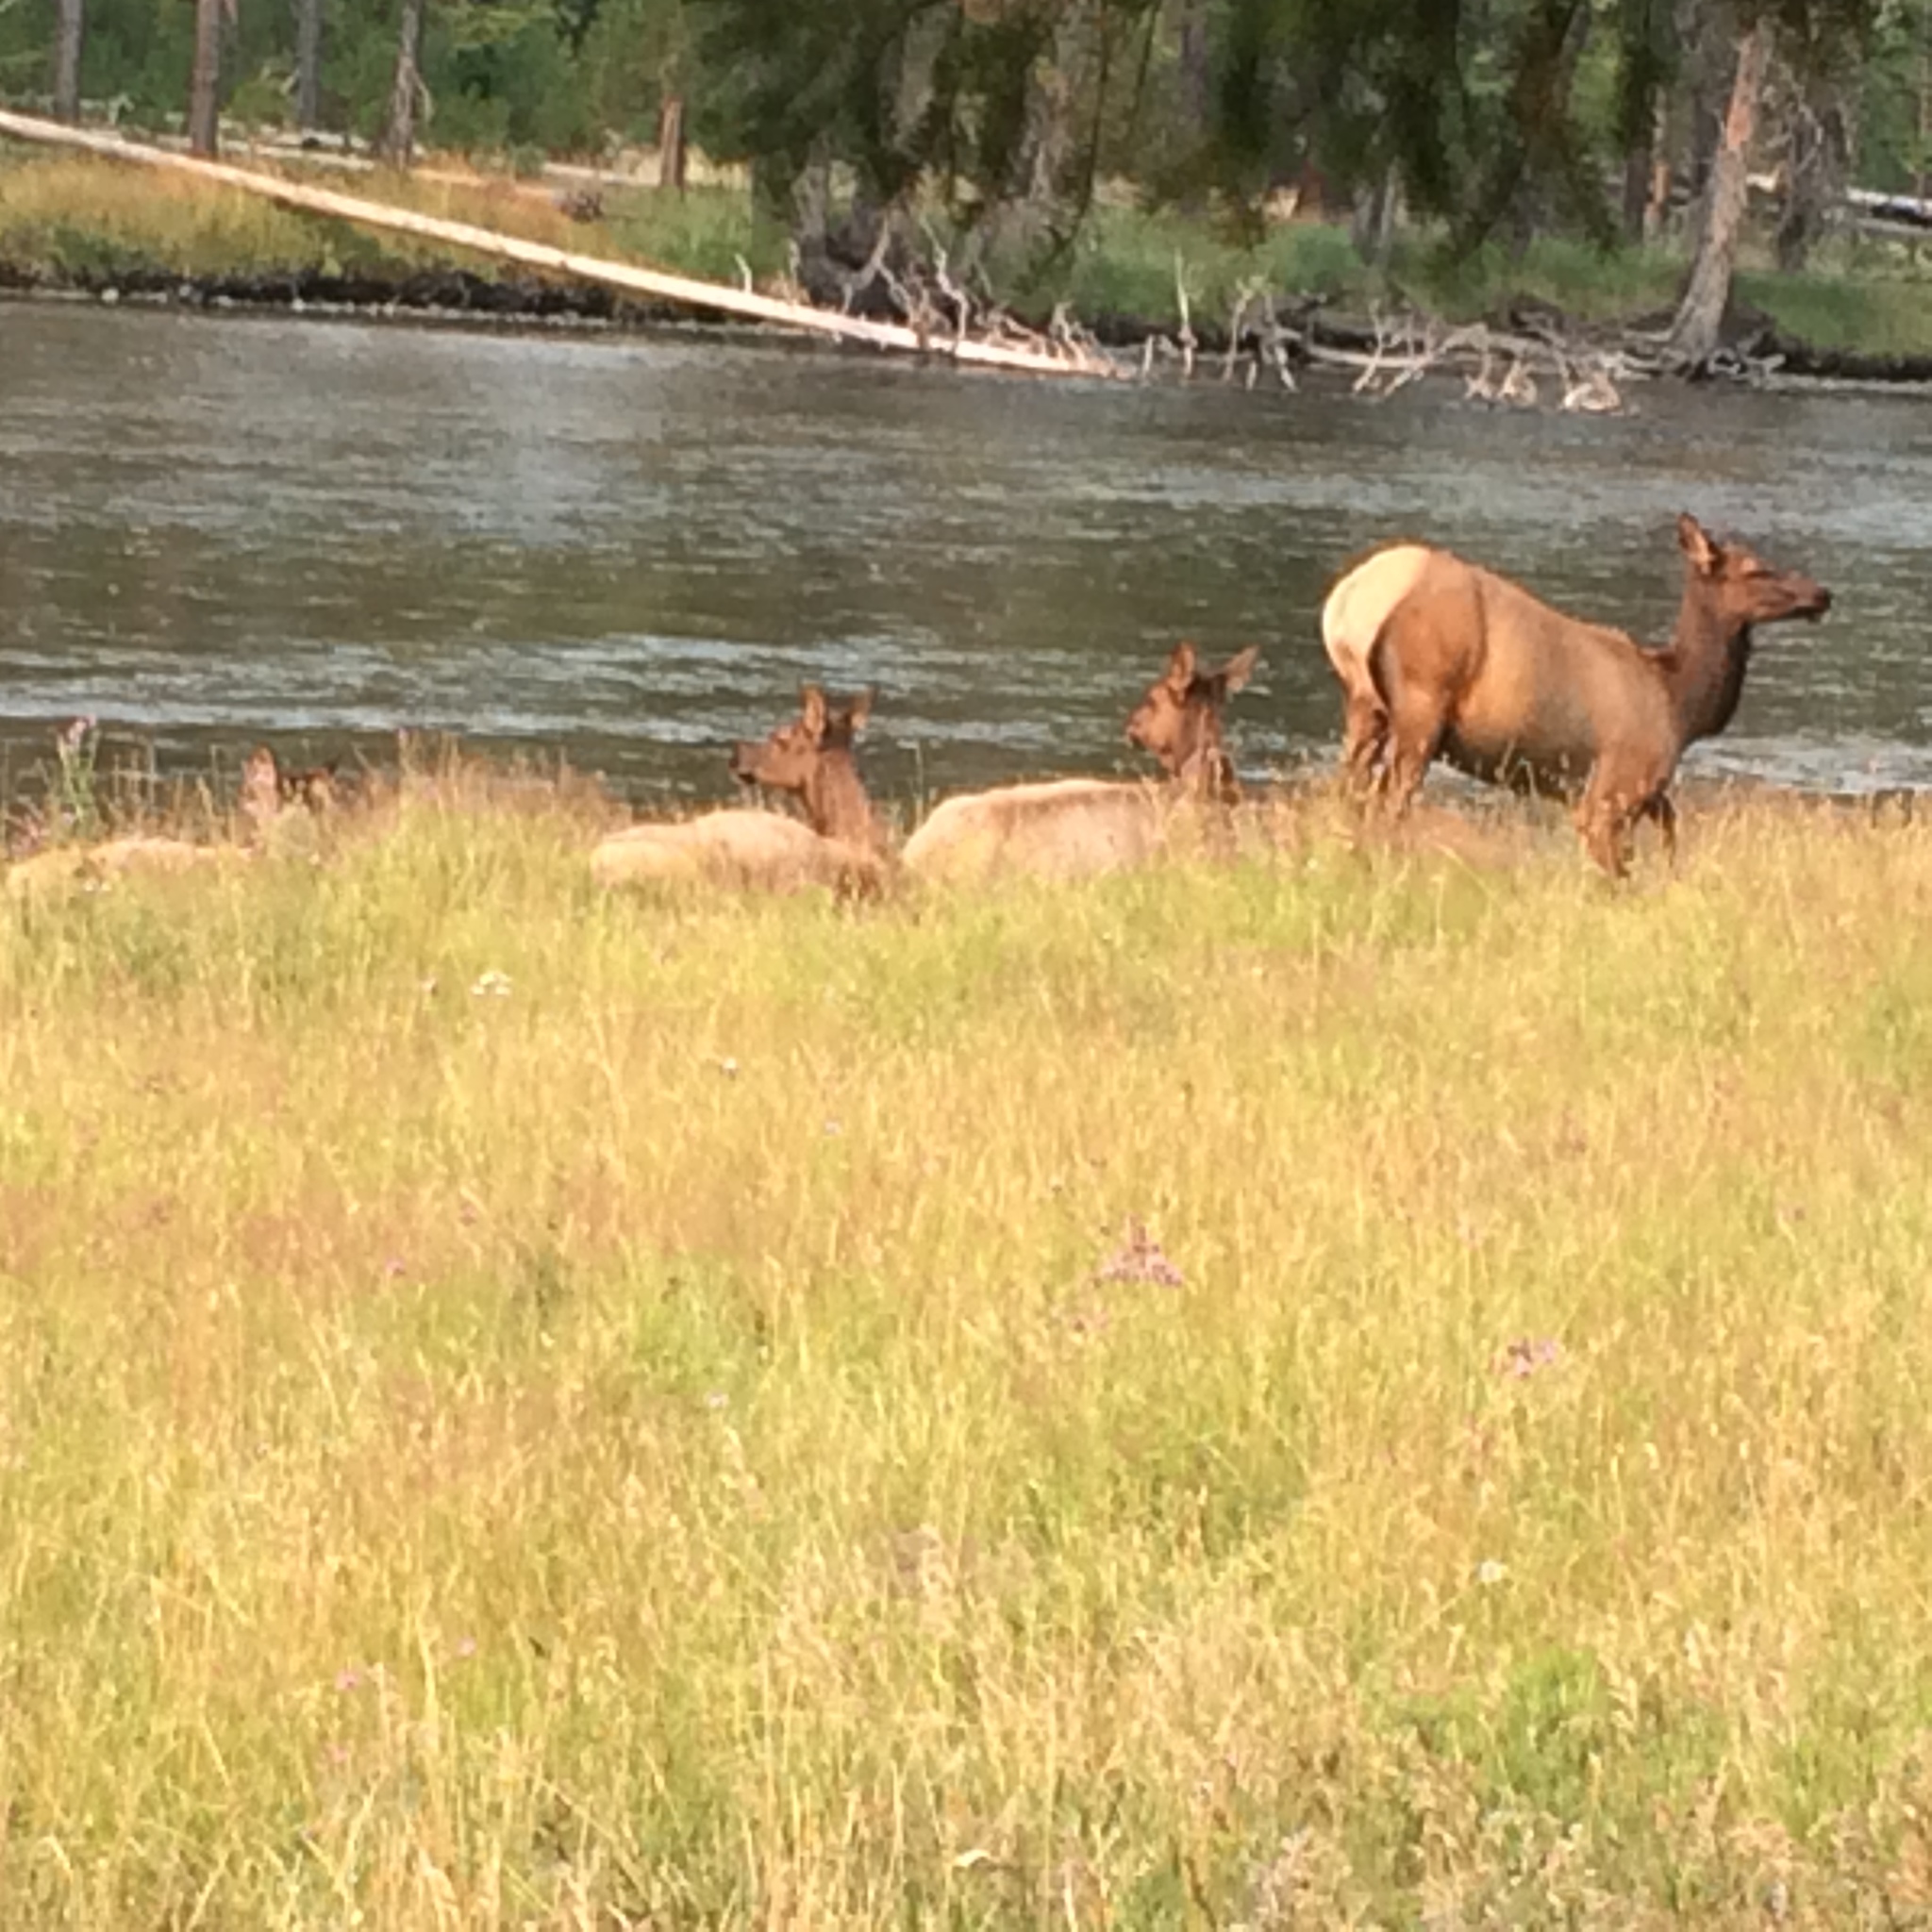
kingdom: Animalia
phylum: Chordata
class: Mammalia
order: Artiodactyla
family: Cervidae
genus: Cervus
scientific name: Cervus elaphus
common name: Red deer
